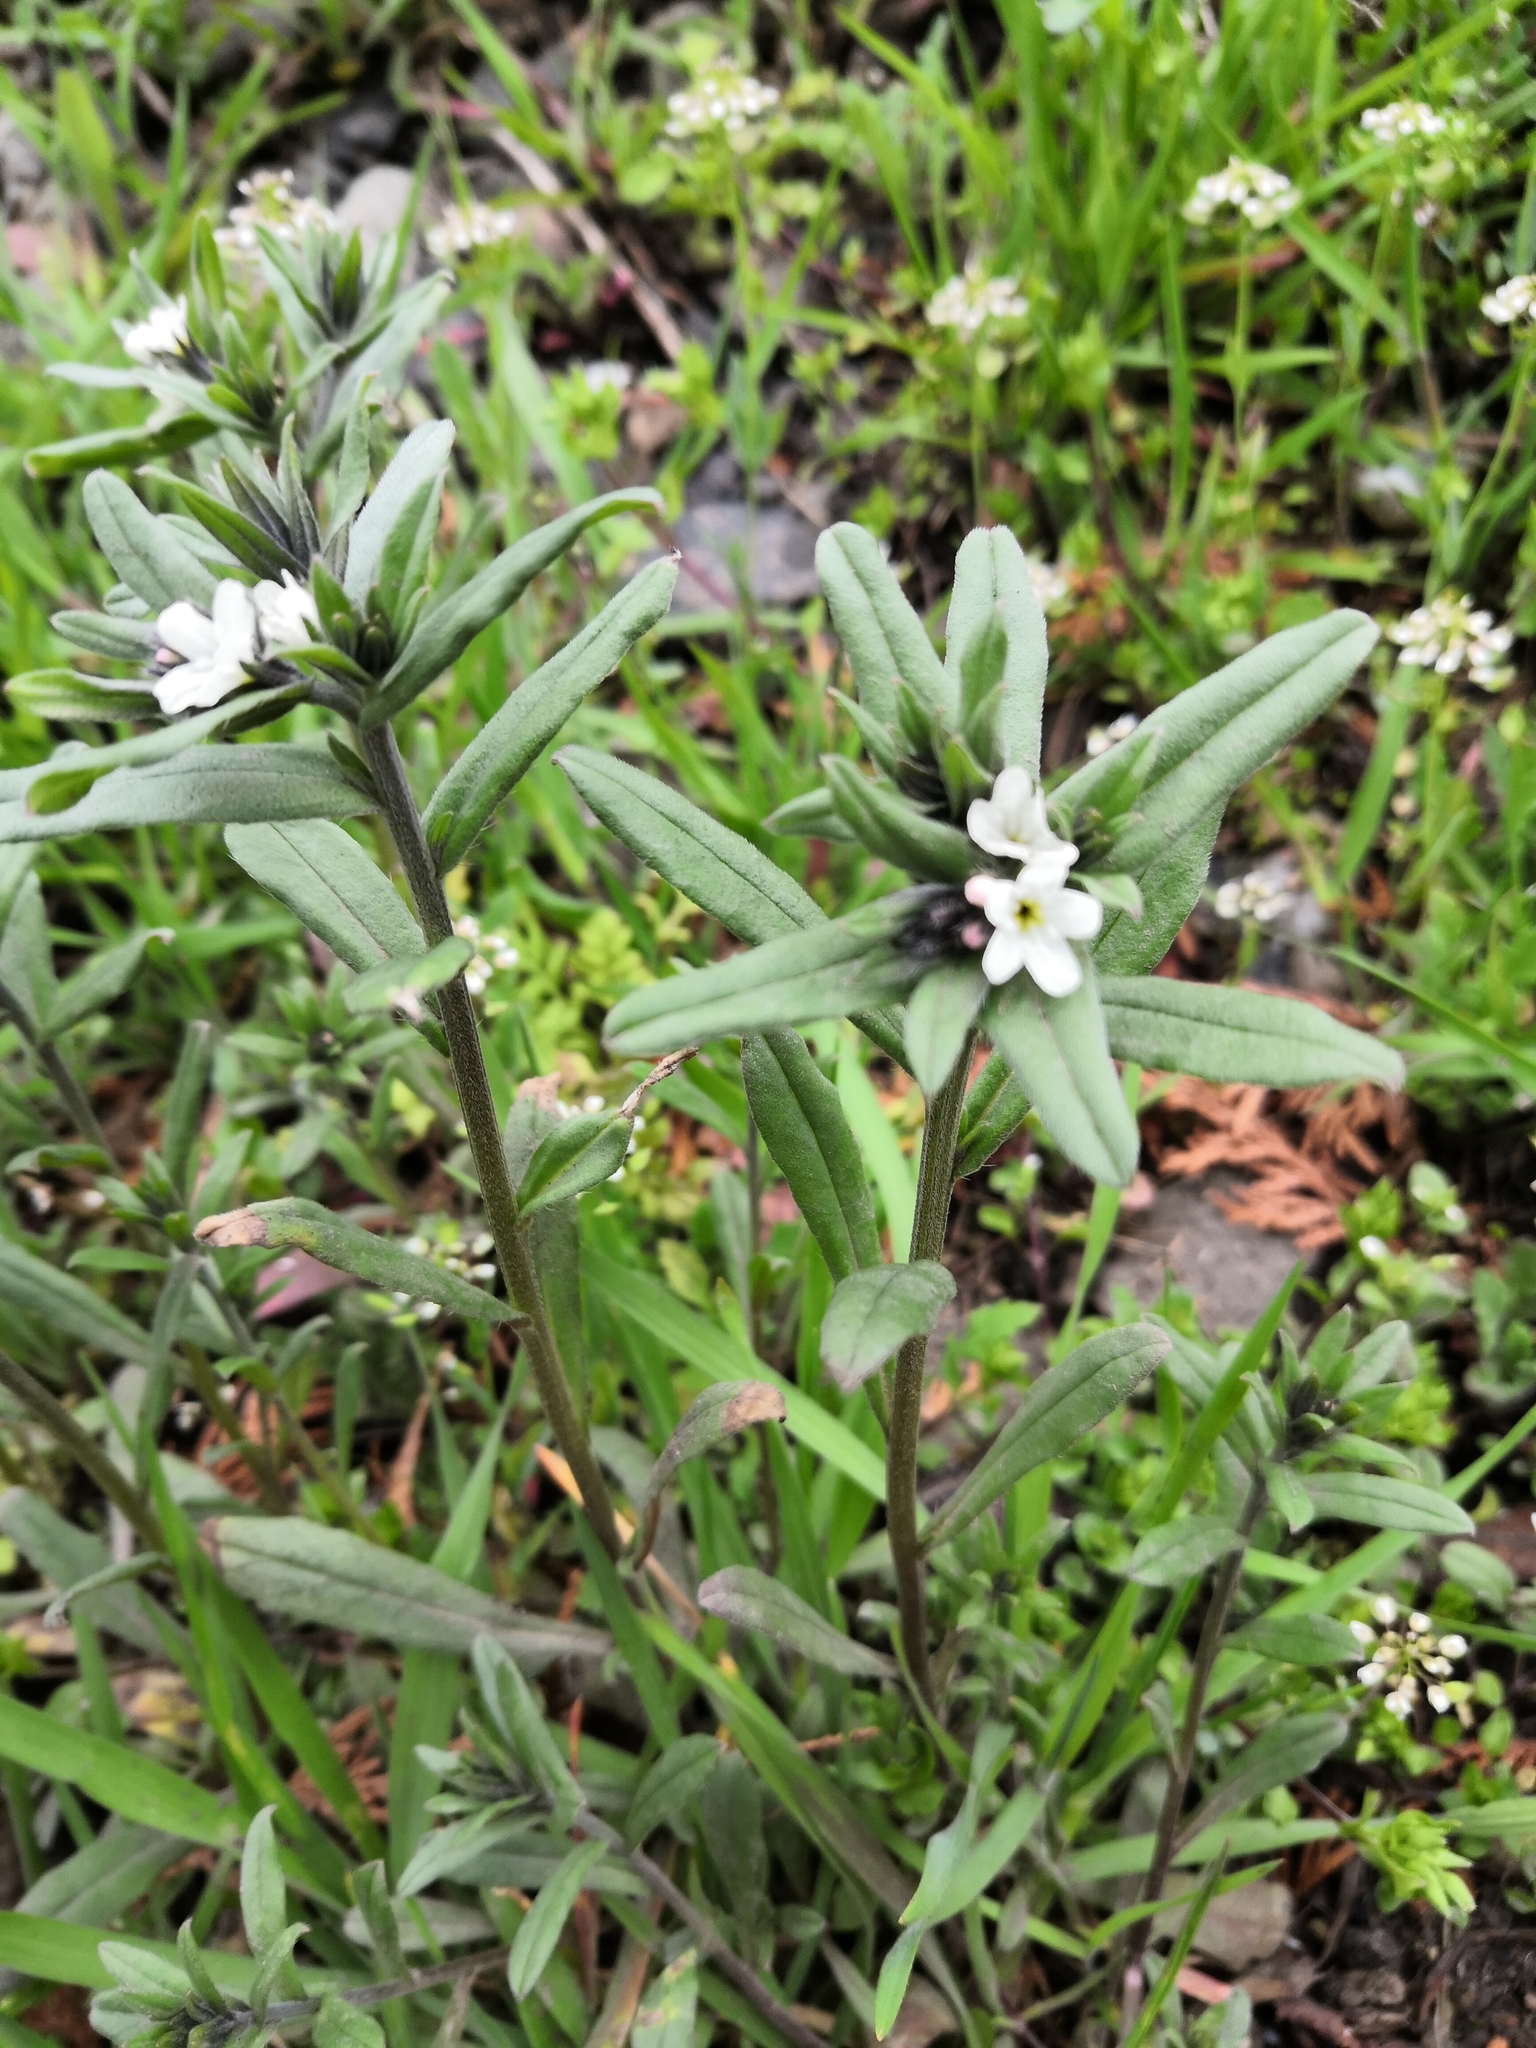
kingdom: Plantae
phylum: Tracheophyta
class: Magnoliopsida
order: Boraginales
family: Boraginaceae
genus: Buglossoides
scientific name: Buglossoides arvensis
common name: Corn gromwell
